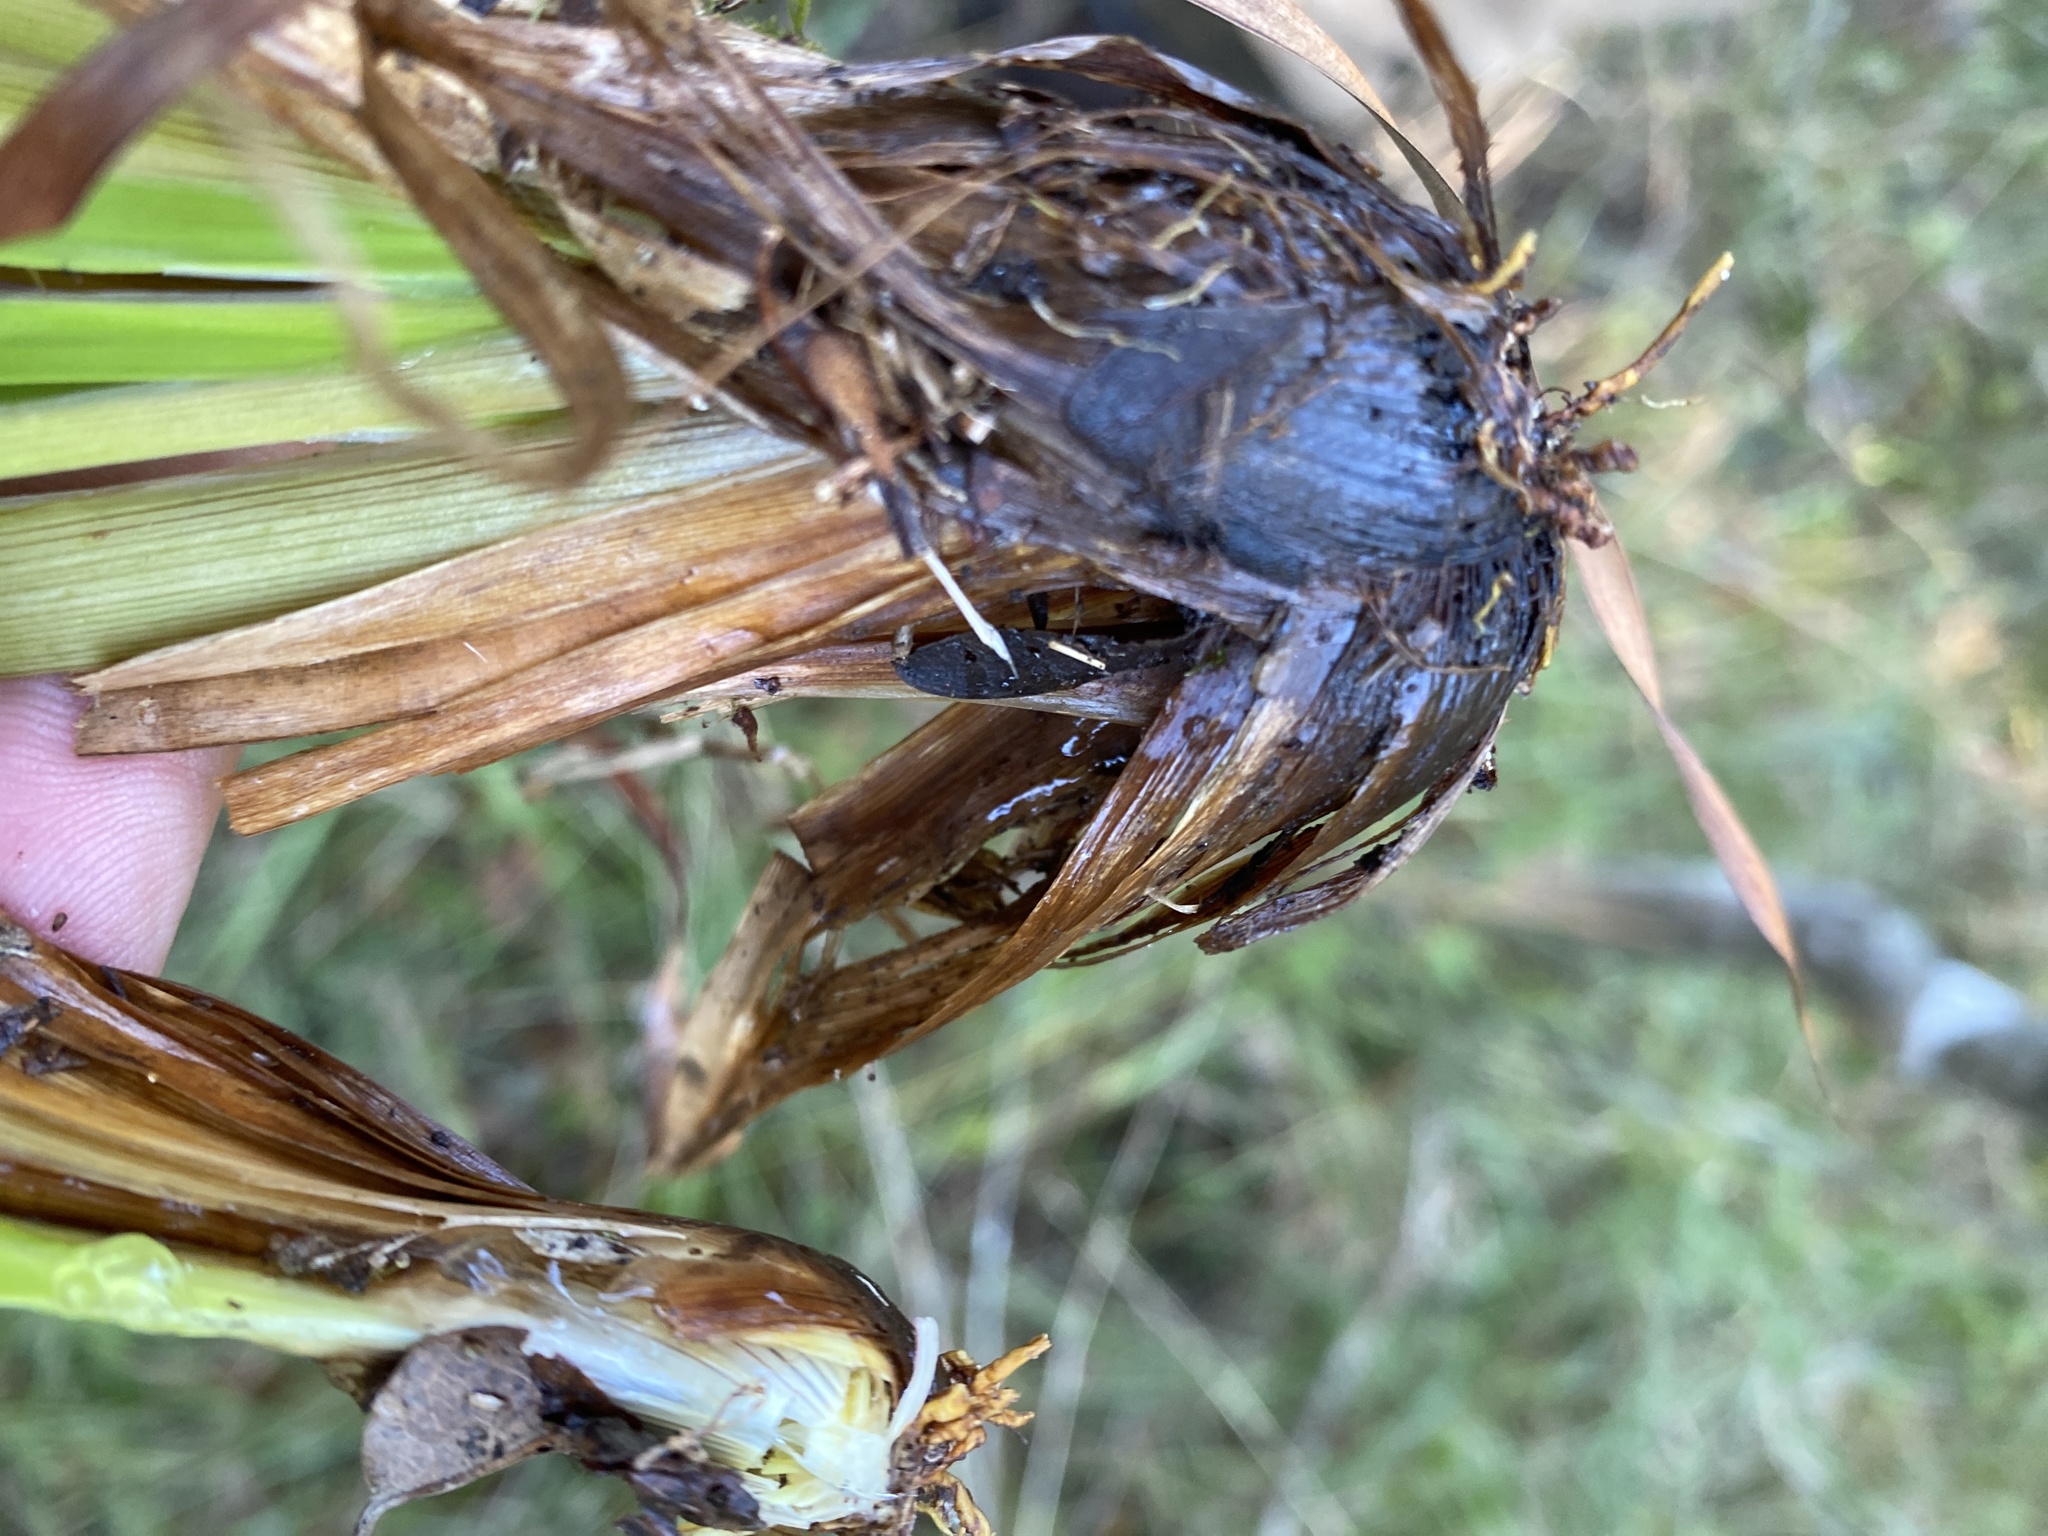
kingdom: Plantae
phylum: Tracheophyta
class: Liliopsida
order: Poales
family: Xyridaceae
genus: Xyris
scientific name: Xyris ambigua
